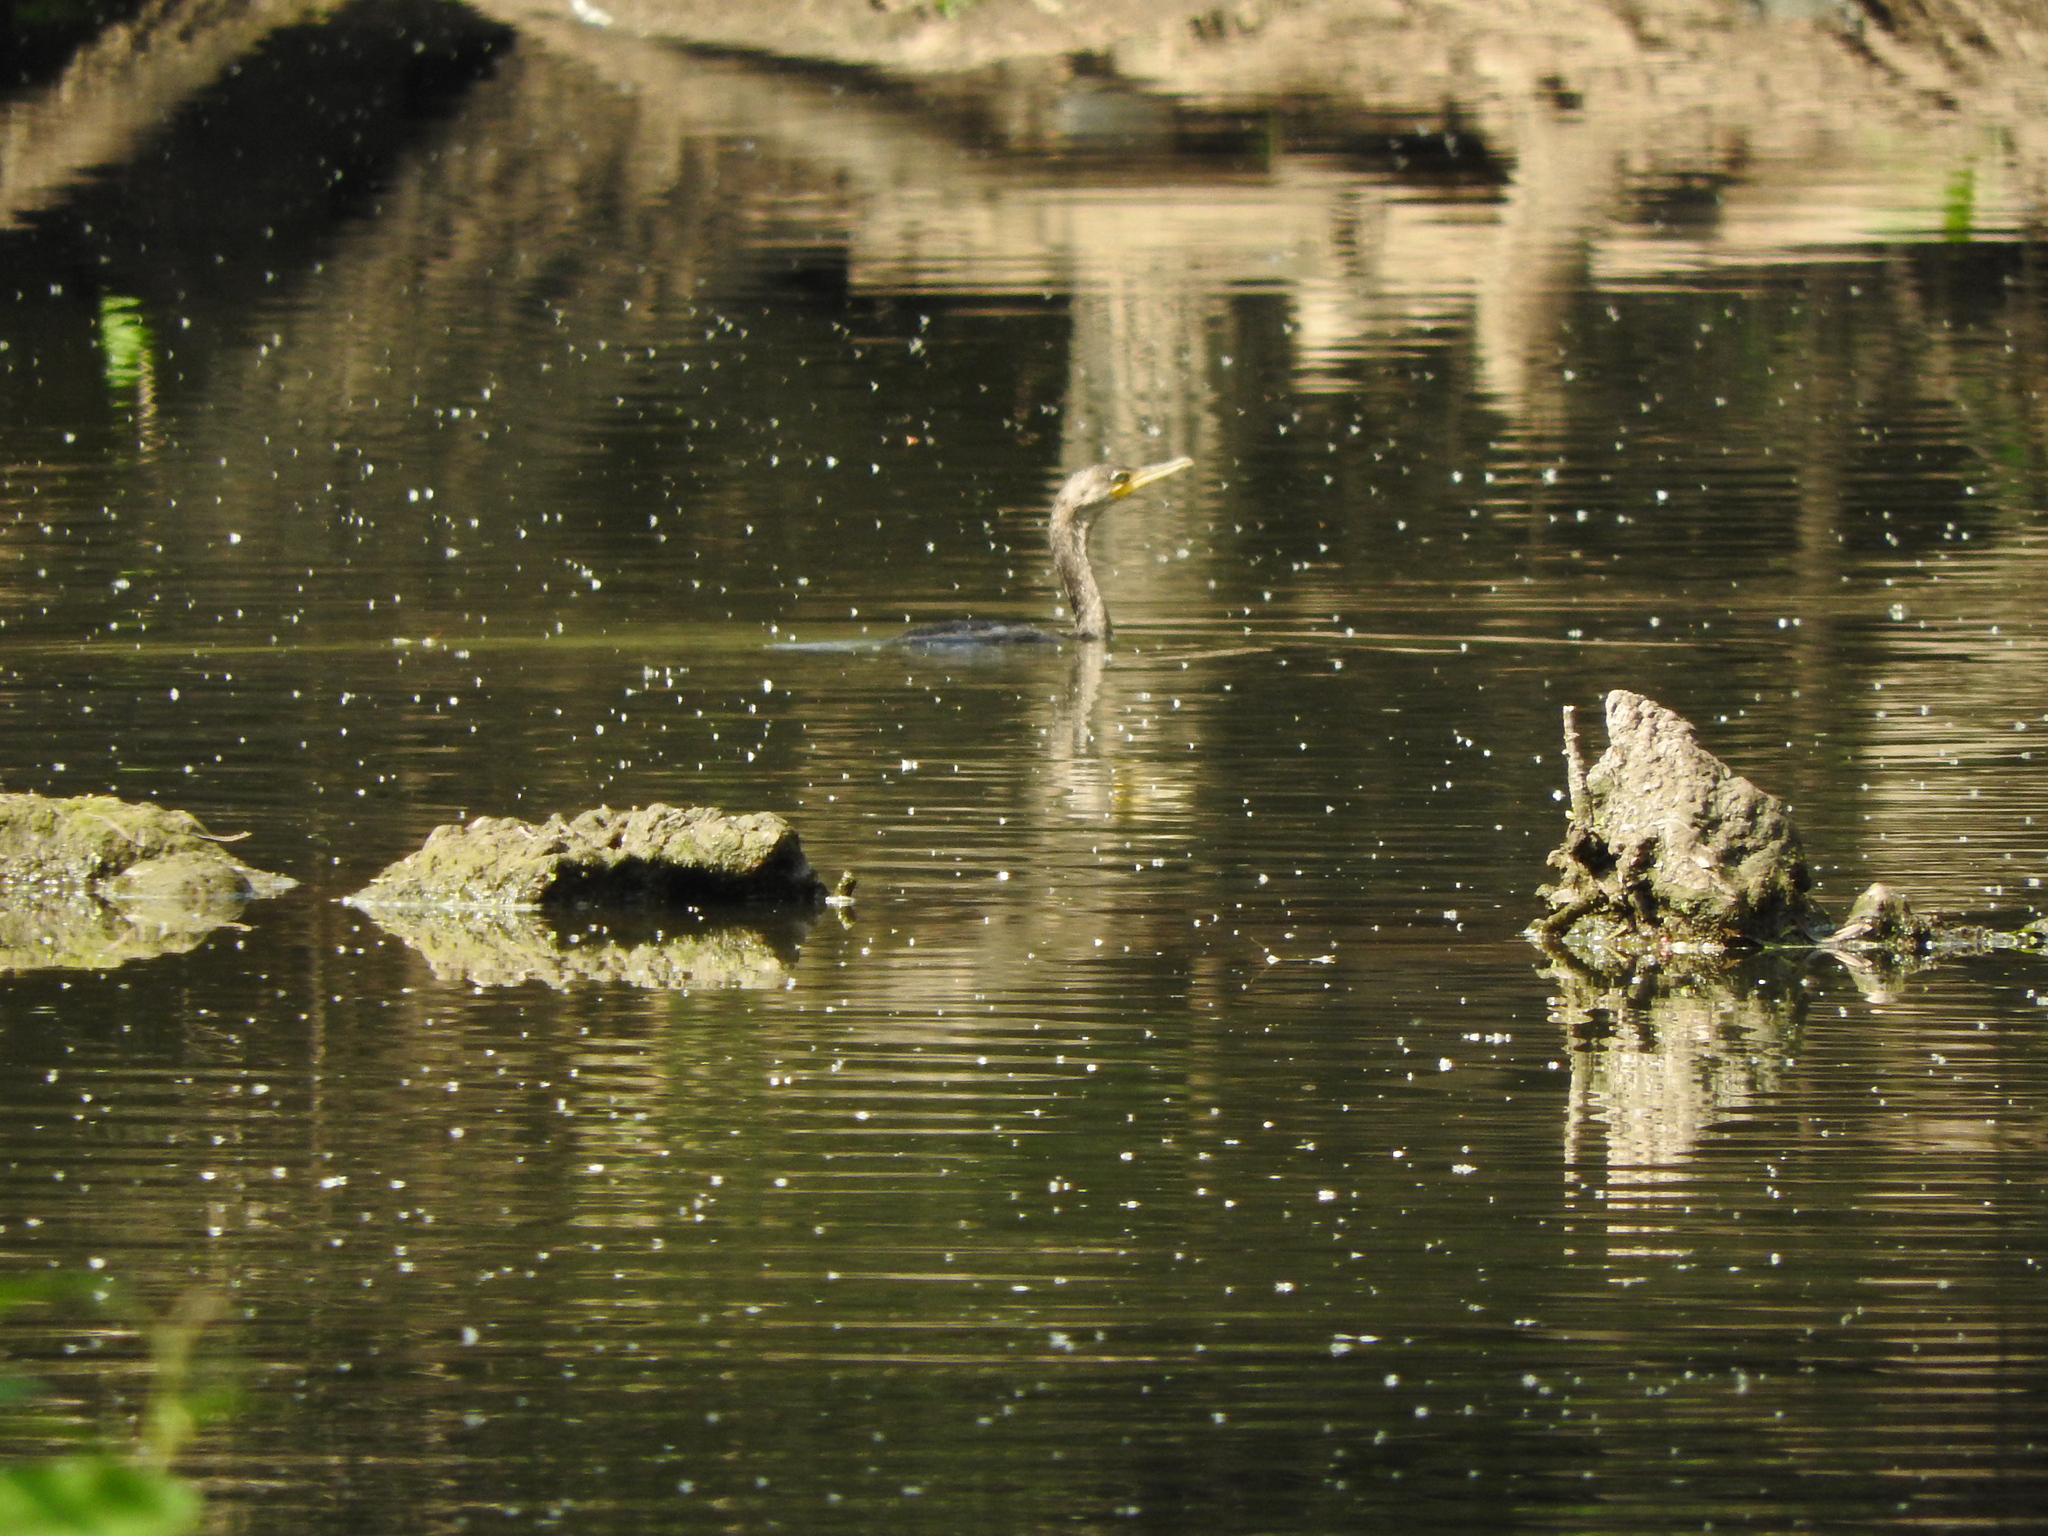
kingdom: Animalia
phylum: Chordata
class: Aves
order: Suliformes
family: Phalacrocoracidae
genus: Phalacrocorax
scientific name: Phalacrocorax brasilianus
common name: Neotropic cormorant
